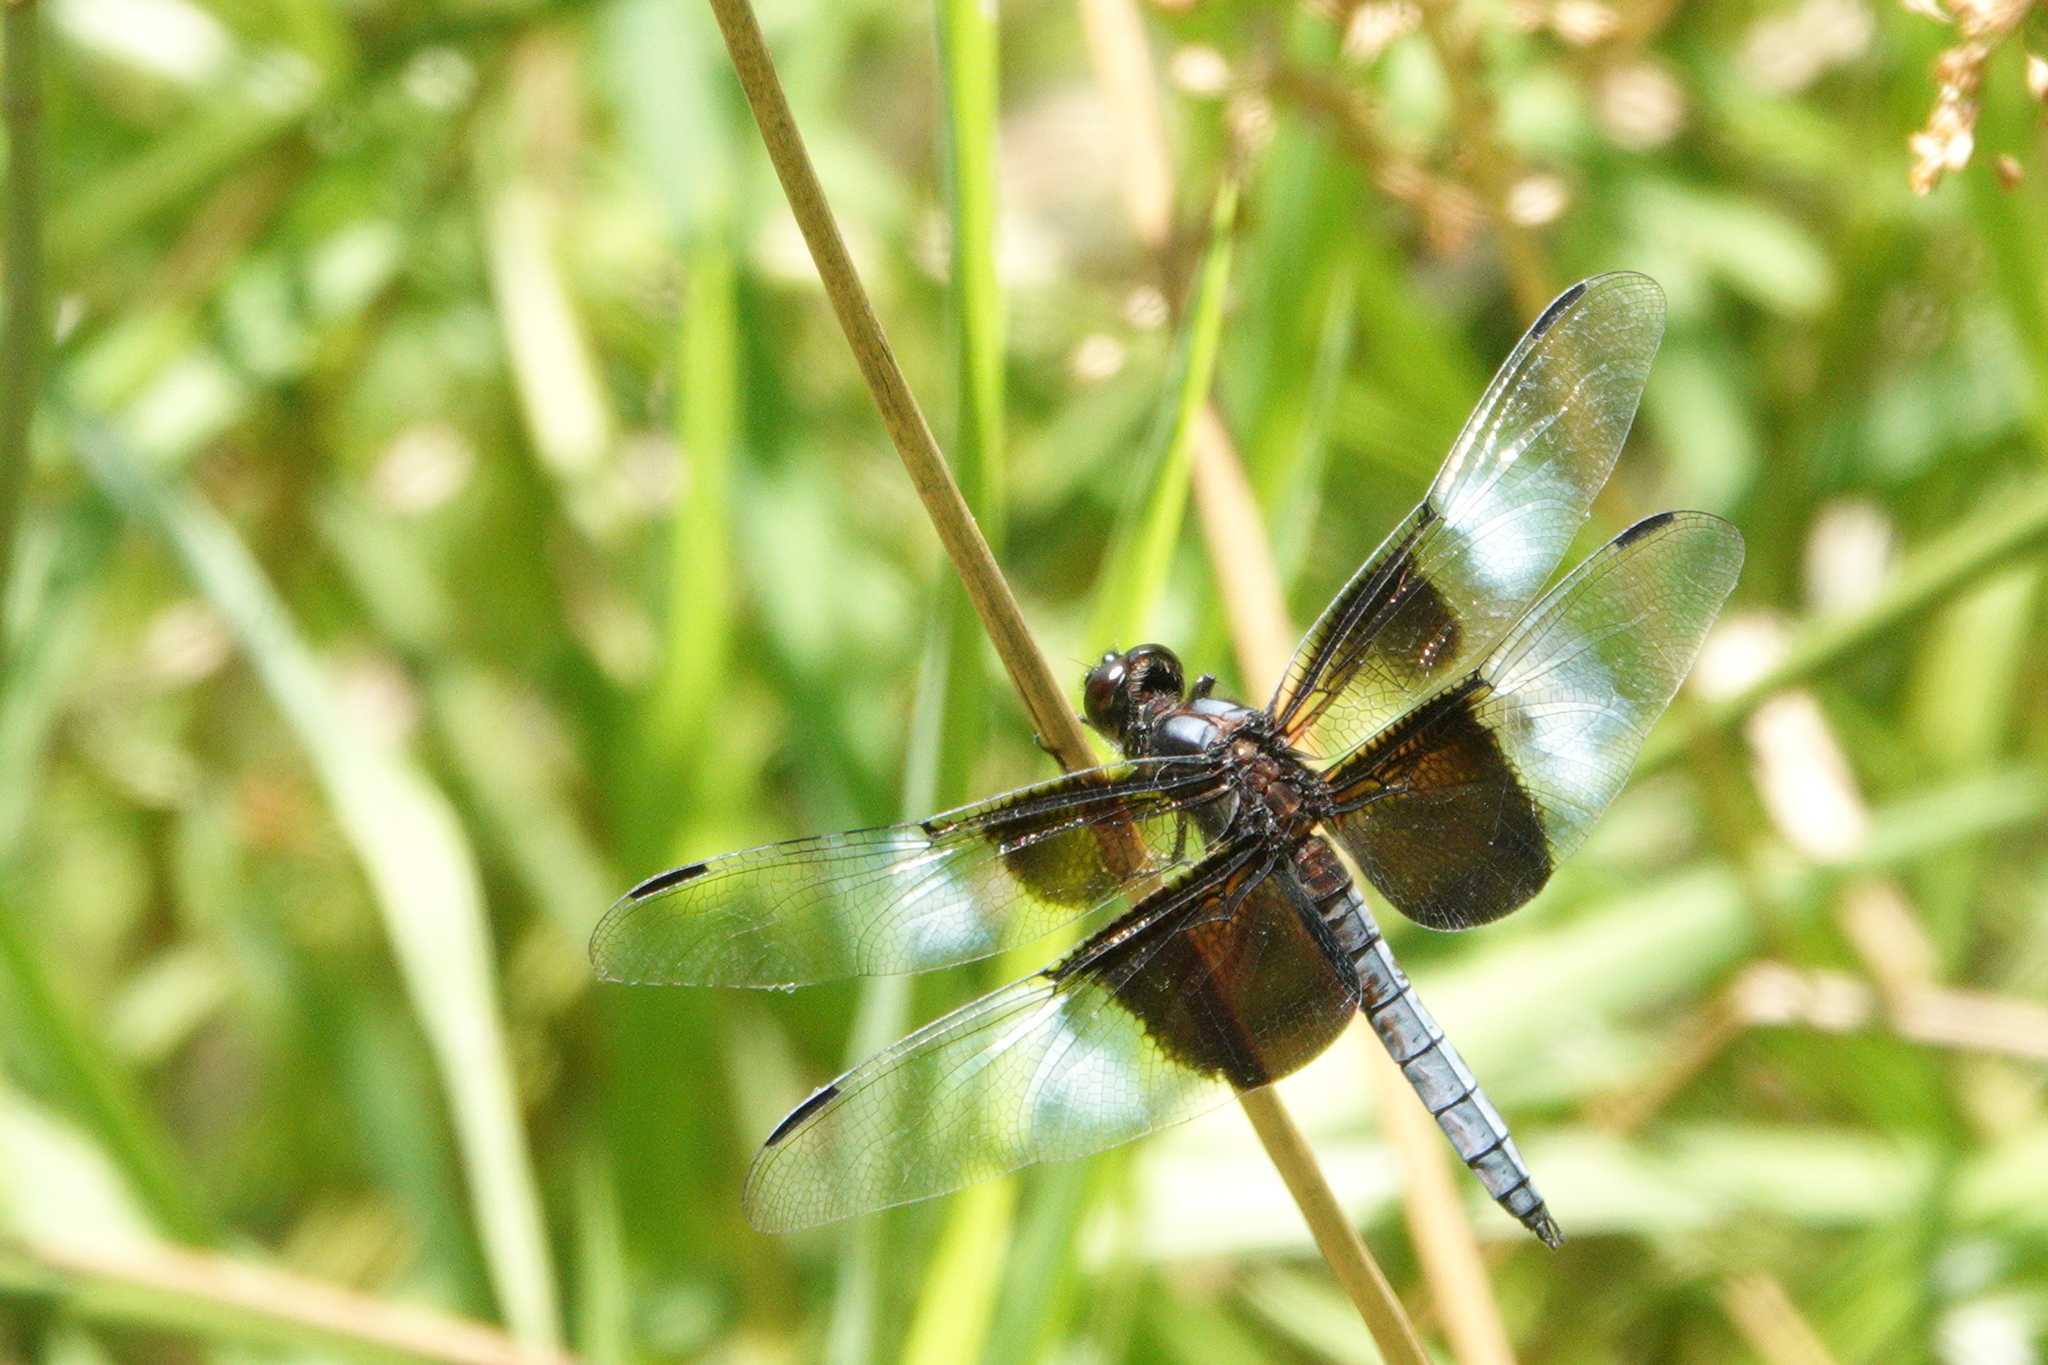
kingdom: Animalia
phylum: Arthropoda
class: Insecta
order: Odonata
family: Libellulidae
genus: Libellula
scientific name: Libellula luctuosa
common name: Widow skimmer
